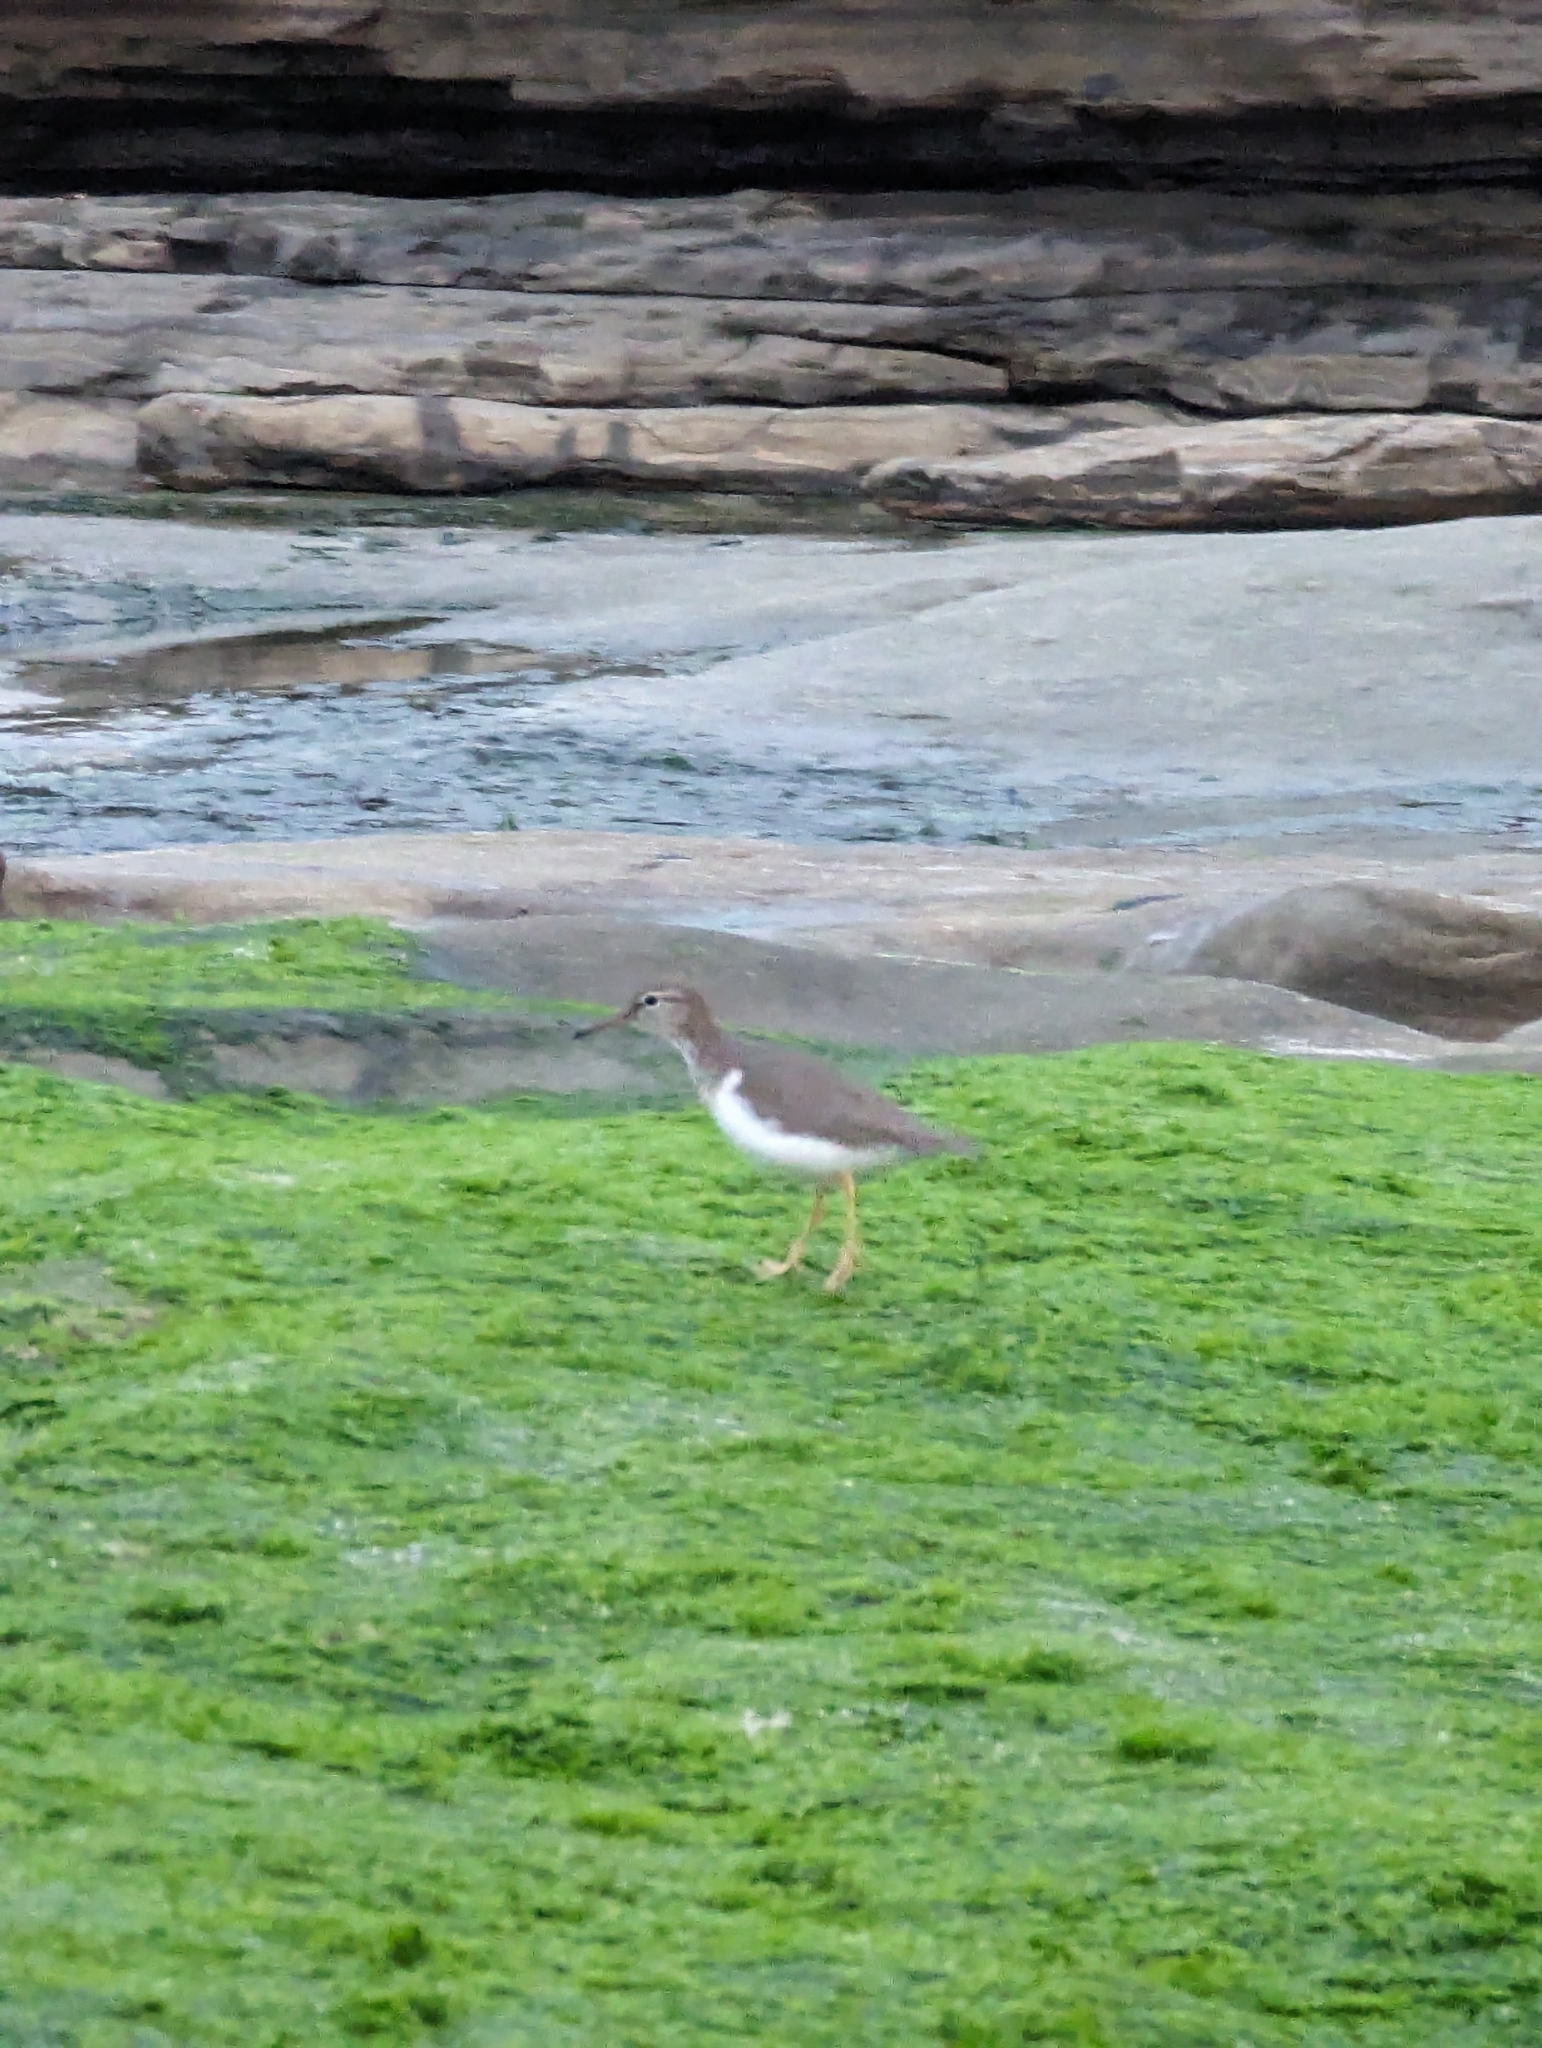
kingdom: Animalia
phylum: Chordata
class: Aves
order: Charadriiformes
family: Scolopacidae
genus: Actitis
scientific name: Actitis macularius
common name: Spotted sandpiper
